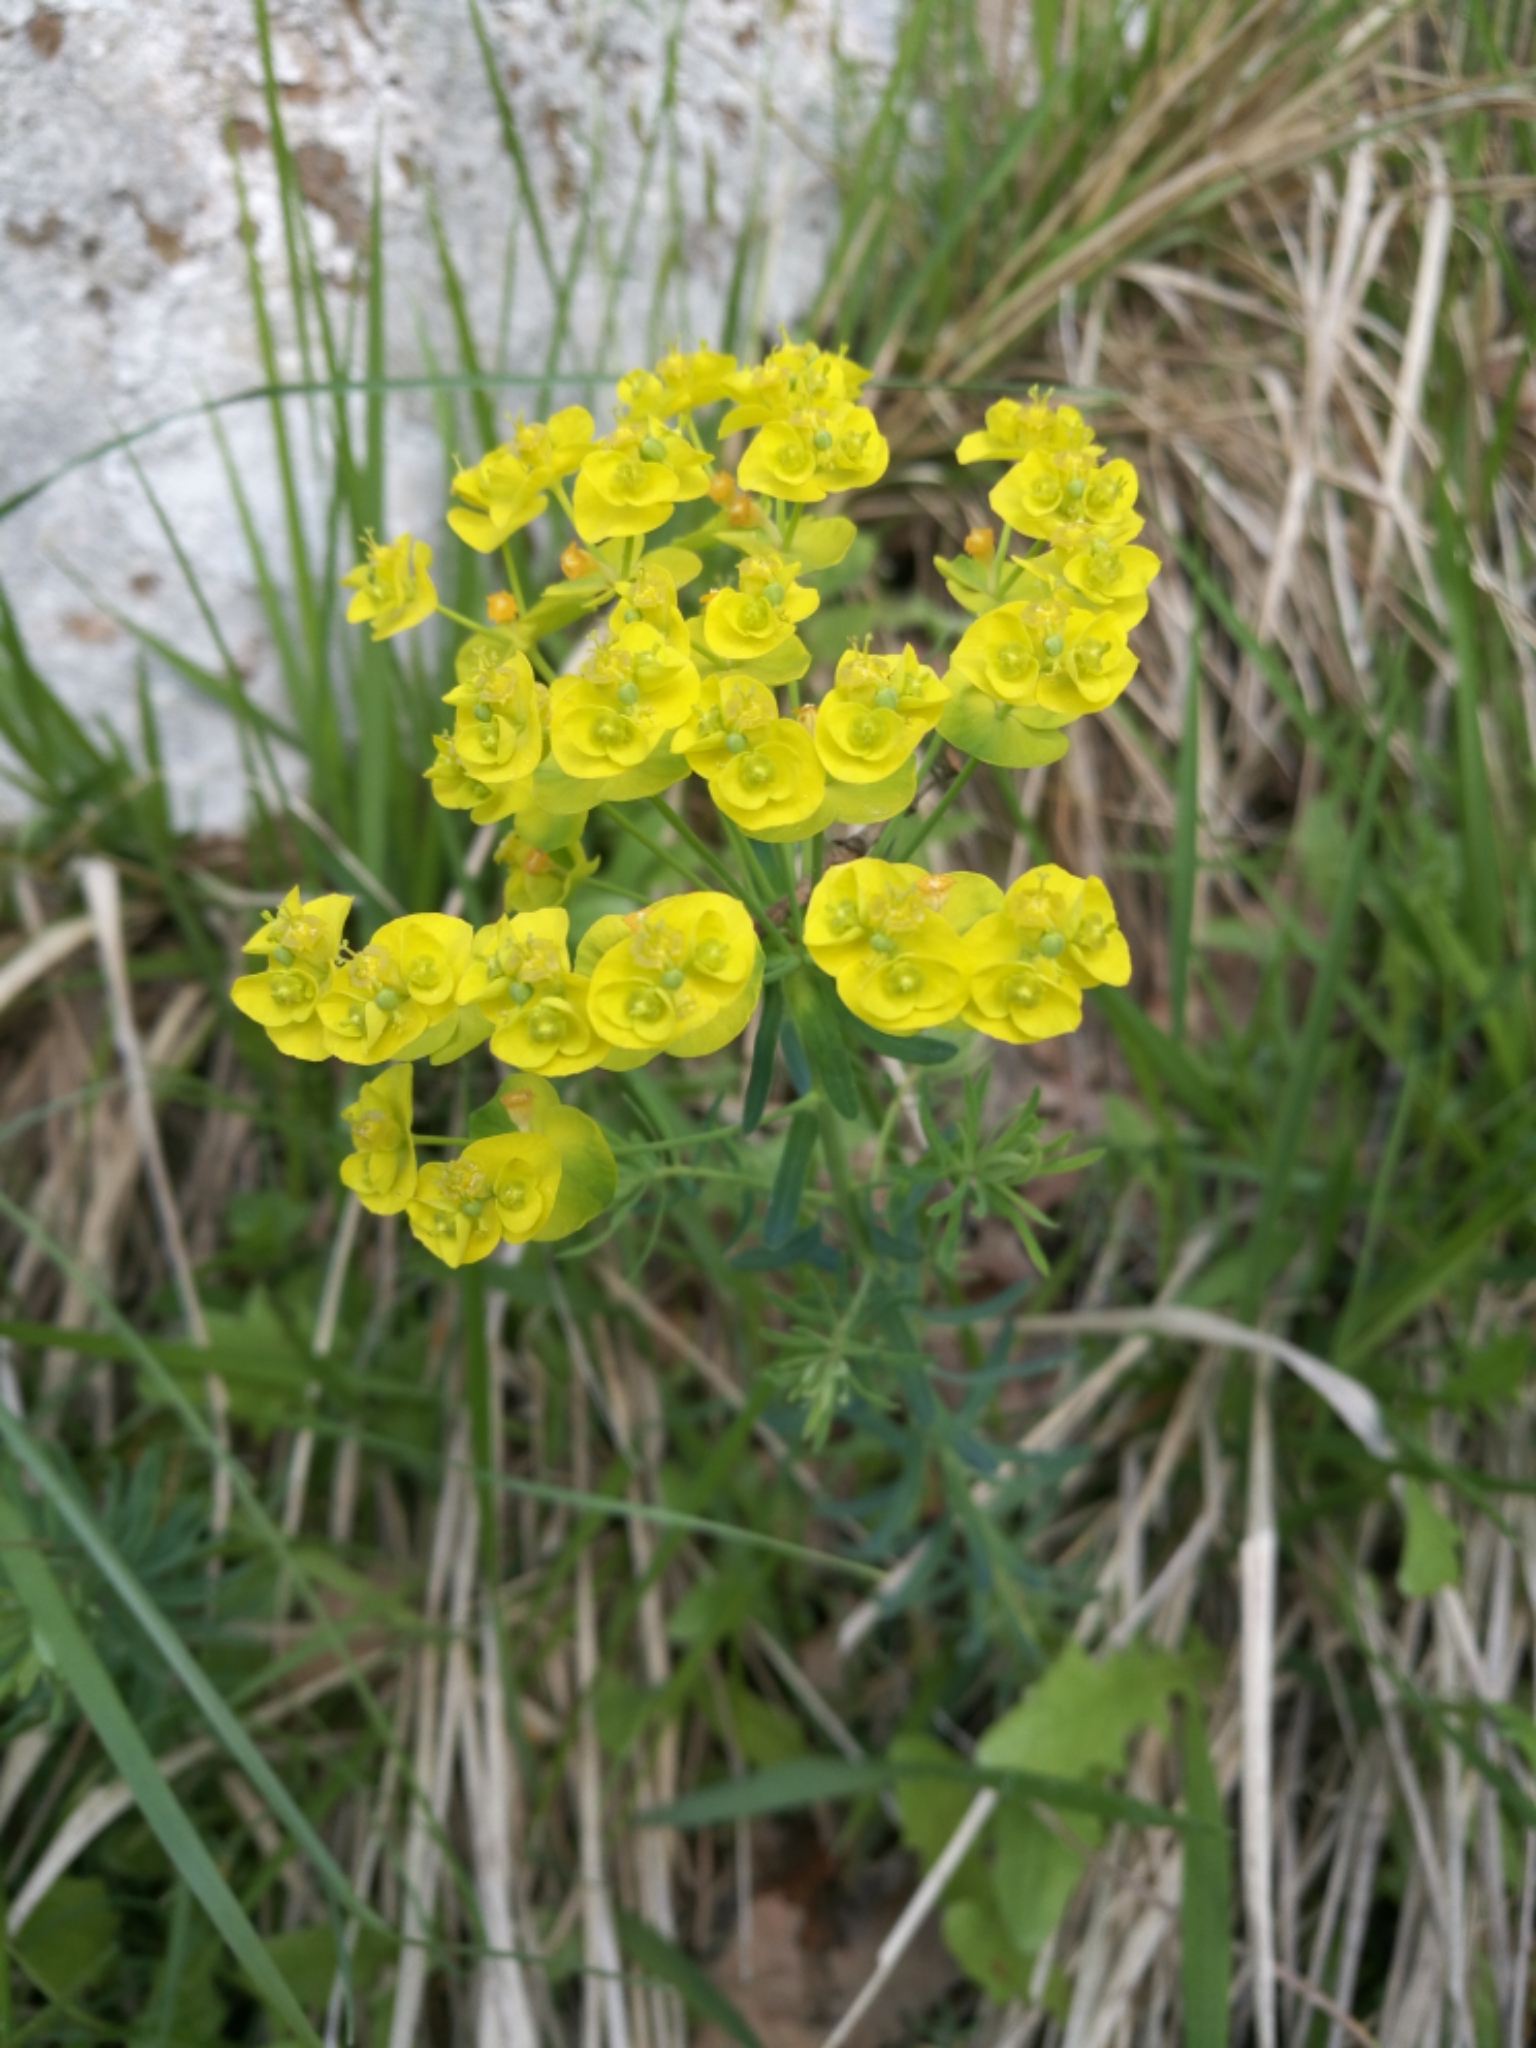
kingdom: Plantae
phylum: Tracheophyta
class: Magnoliopsida
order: Malpighiales
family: Euphorbiaceae
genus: Euphorbia
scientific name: Euphorbia cyparissias
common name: Cypress spurge
